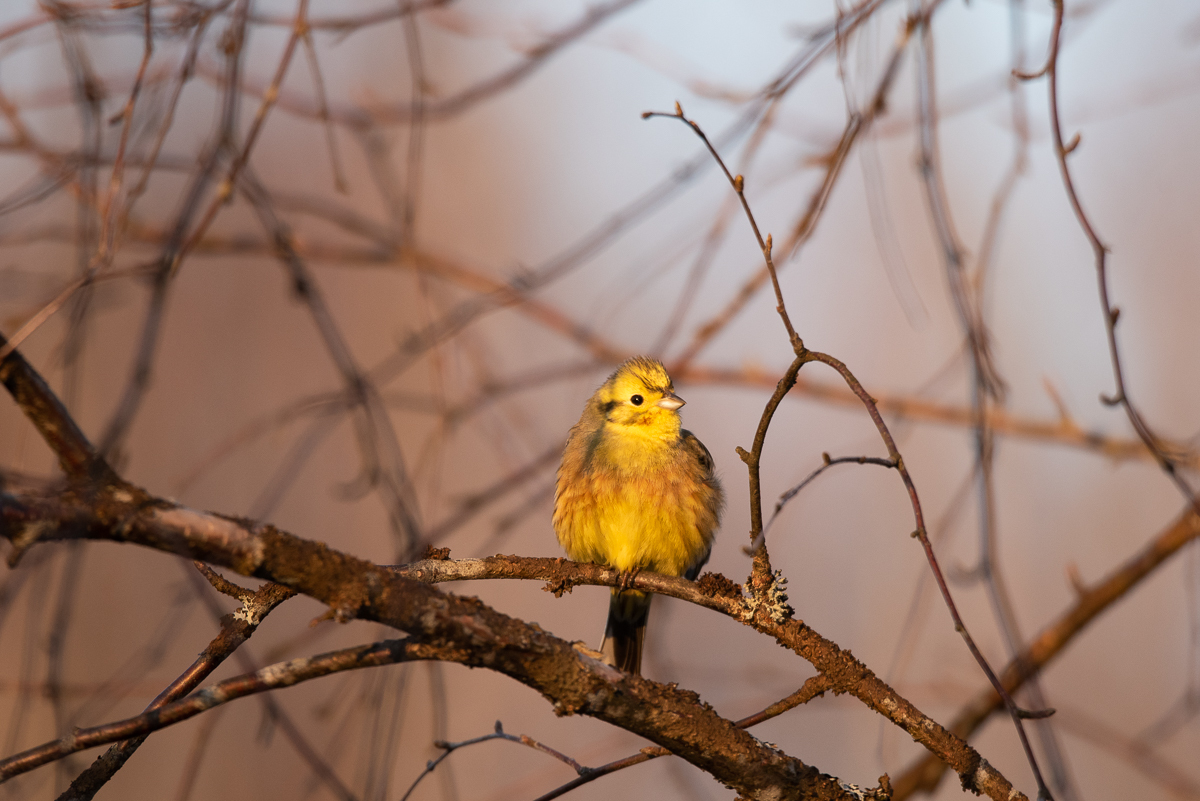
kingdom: Animalia
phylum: Chordata
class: Aves
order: Passeriformes
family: Emberizidae
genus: Emberiza
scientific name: Emberiza citrinella
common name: Yellowhammer
